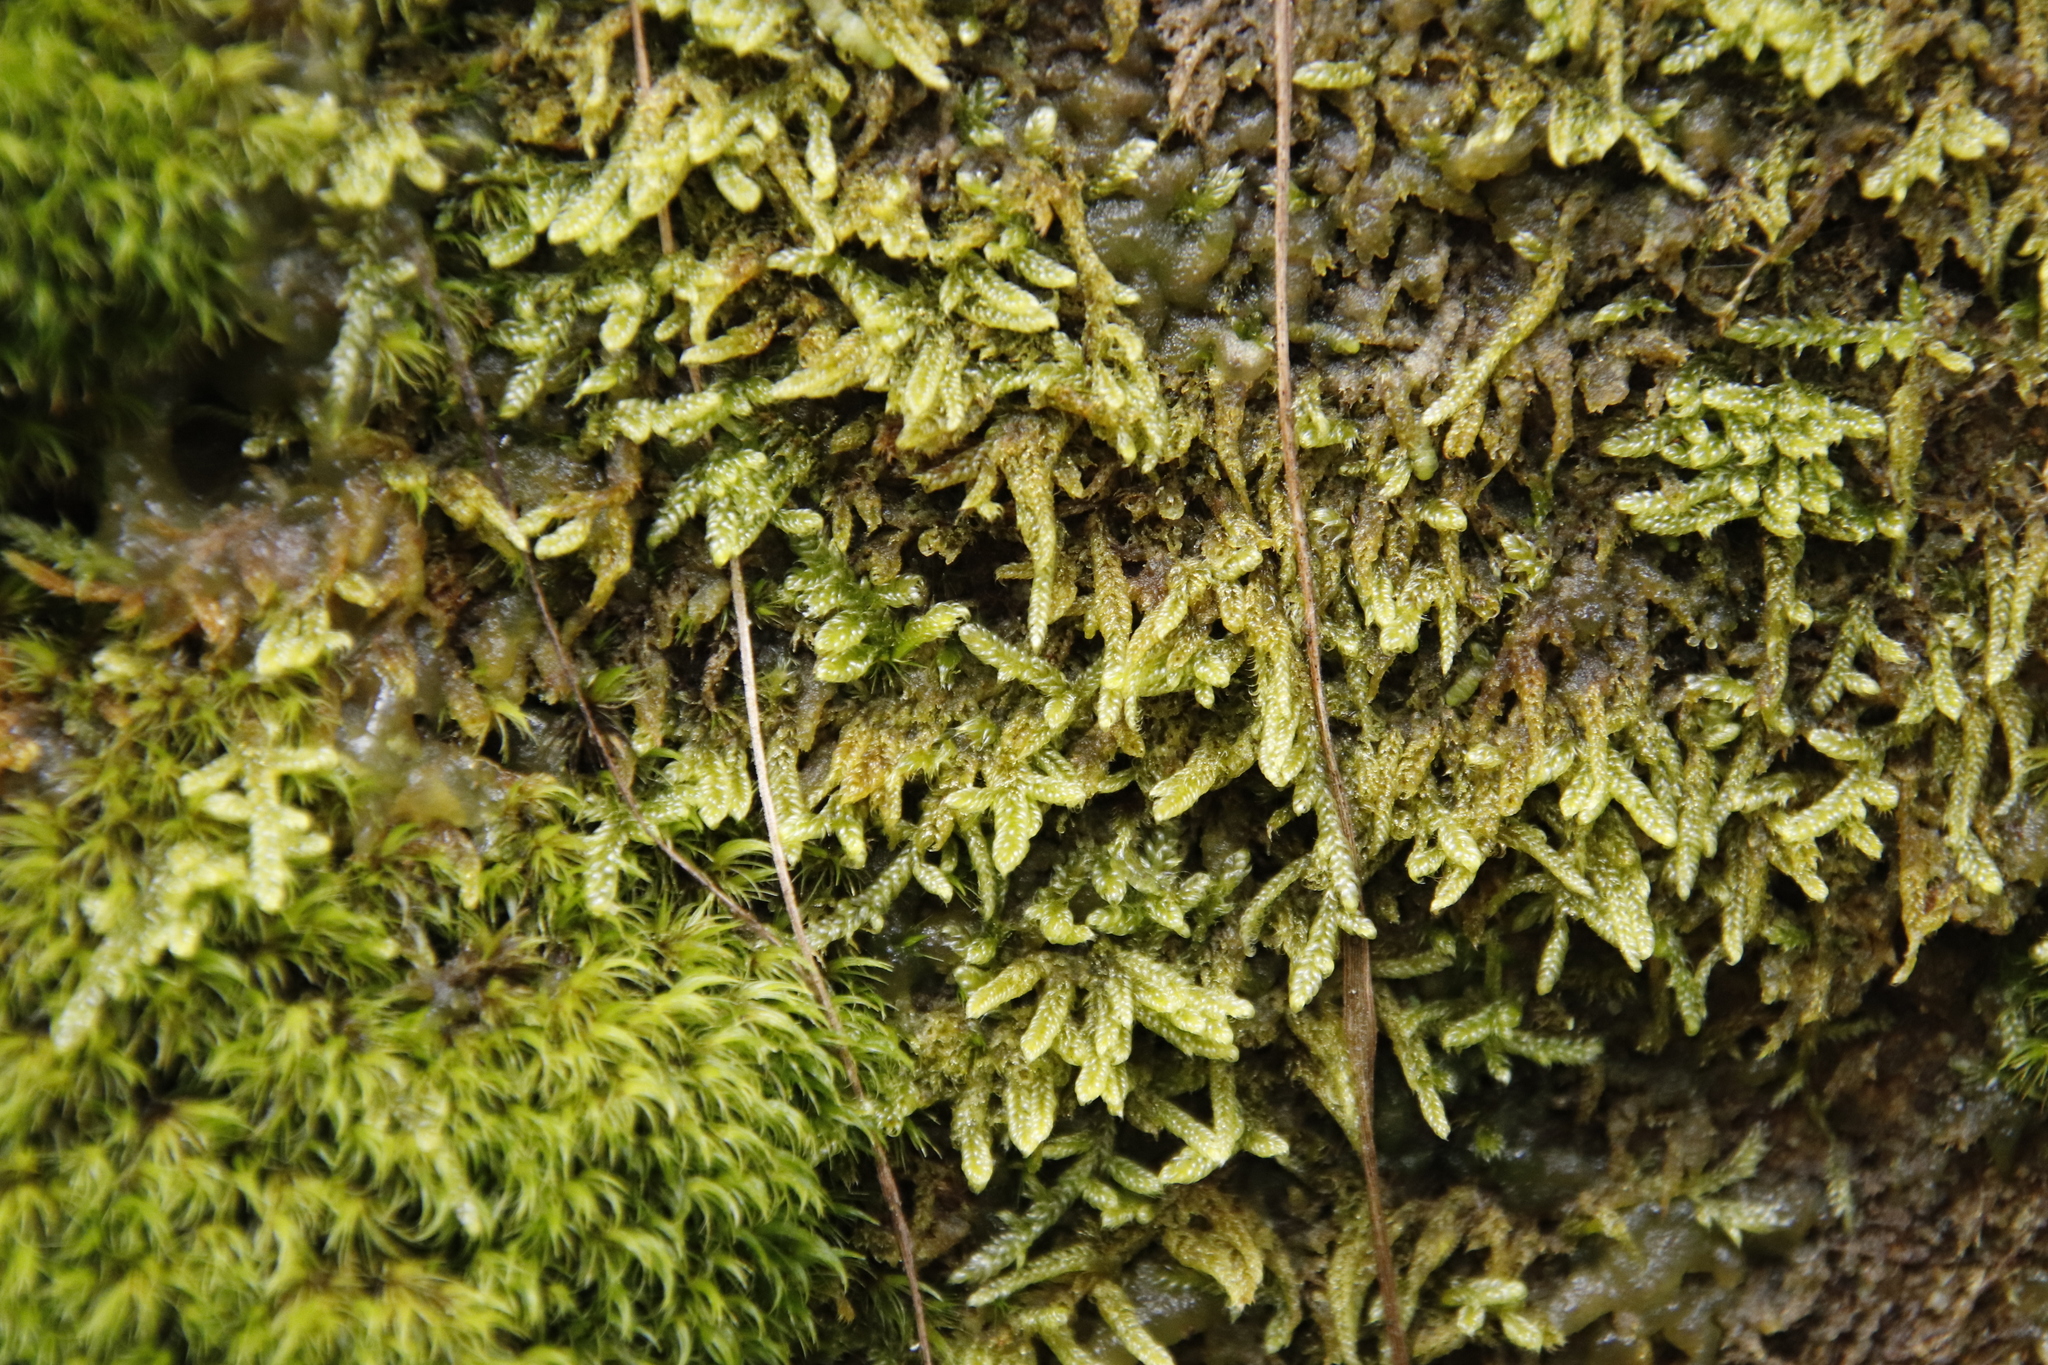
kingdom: Plantae
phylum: Bryophyta
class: Bryopsida
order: Hypnales
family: Hypnaceae
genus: Hypnum
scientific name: Hypnum cupressiforme
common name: Cypress-leaved plait-moss
